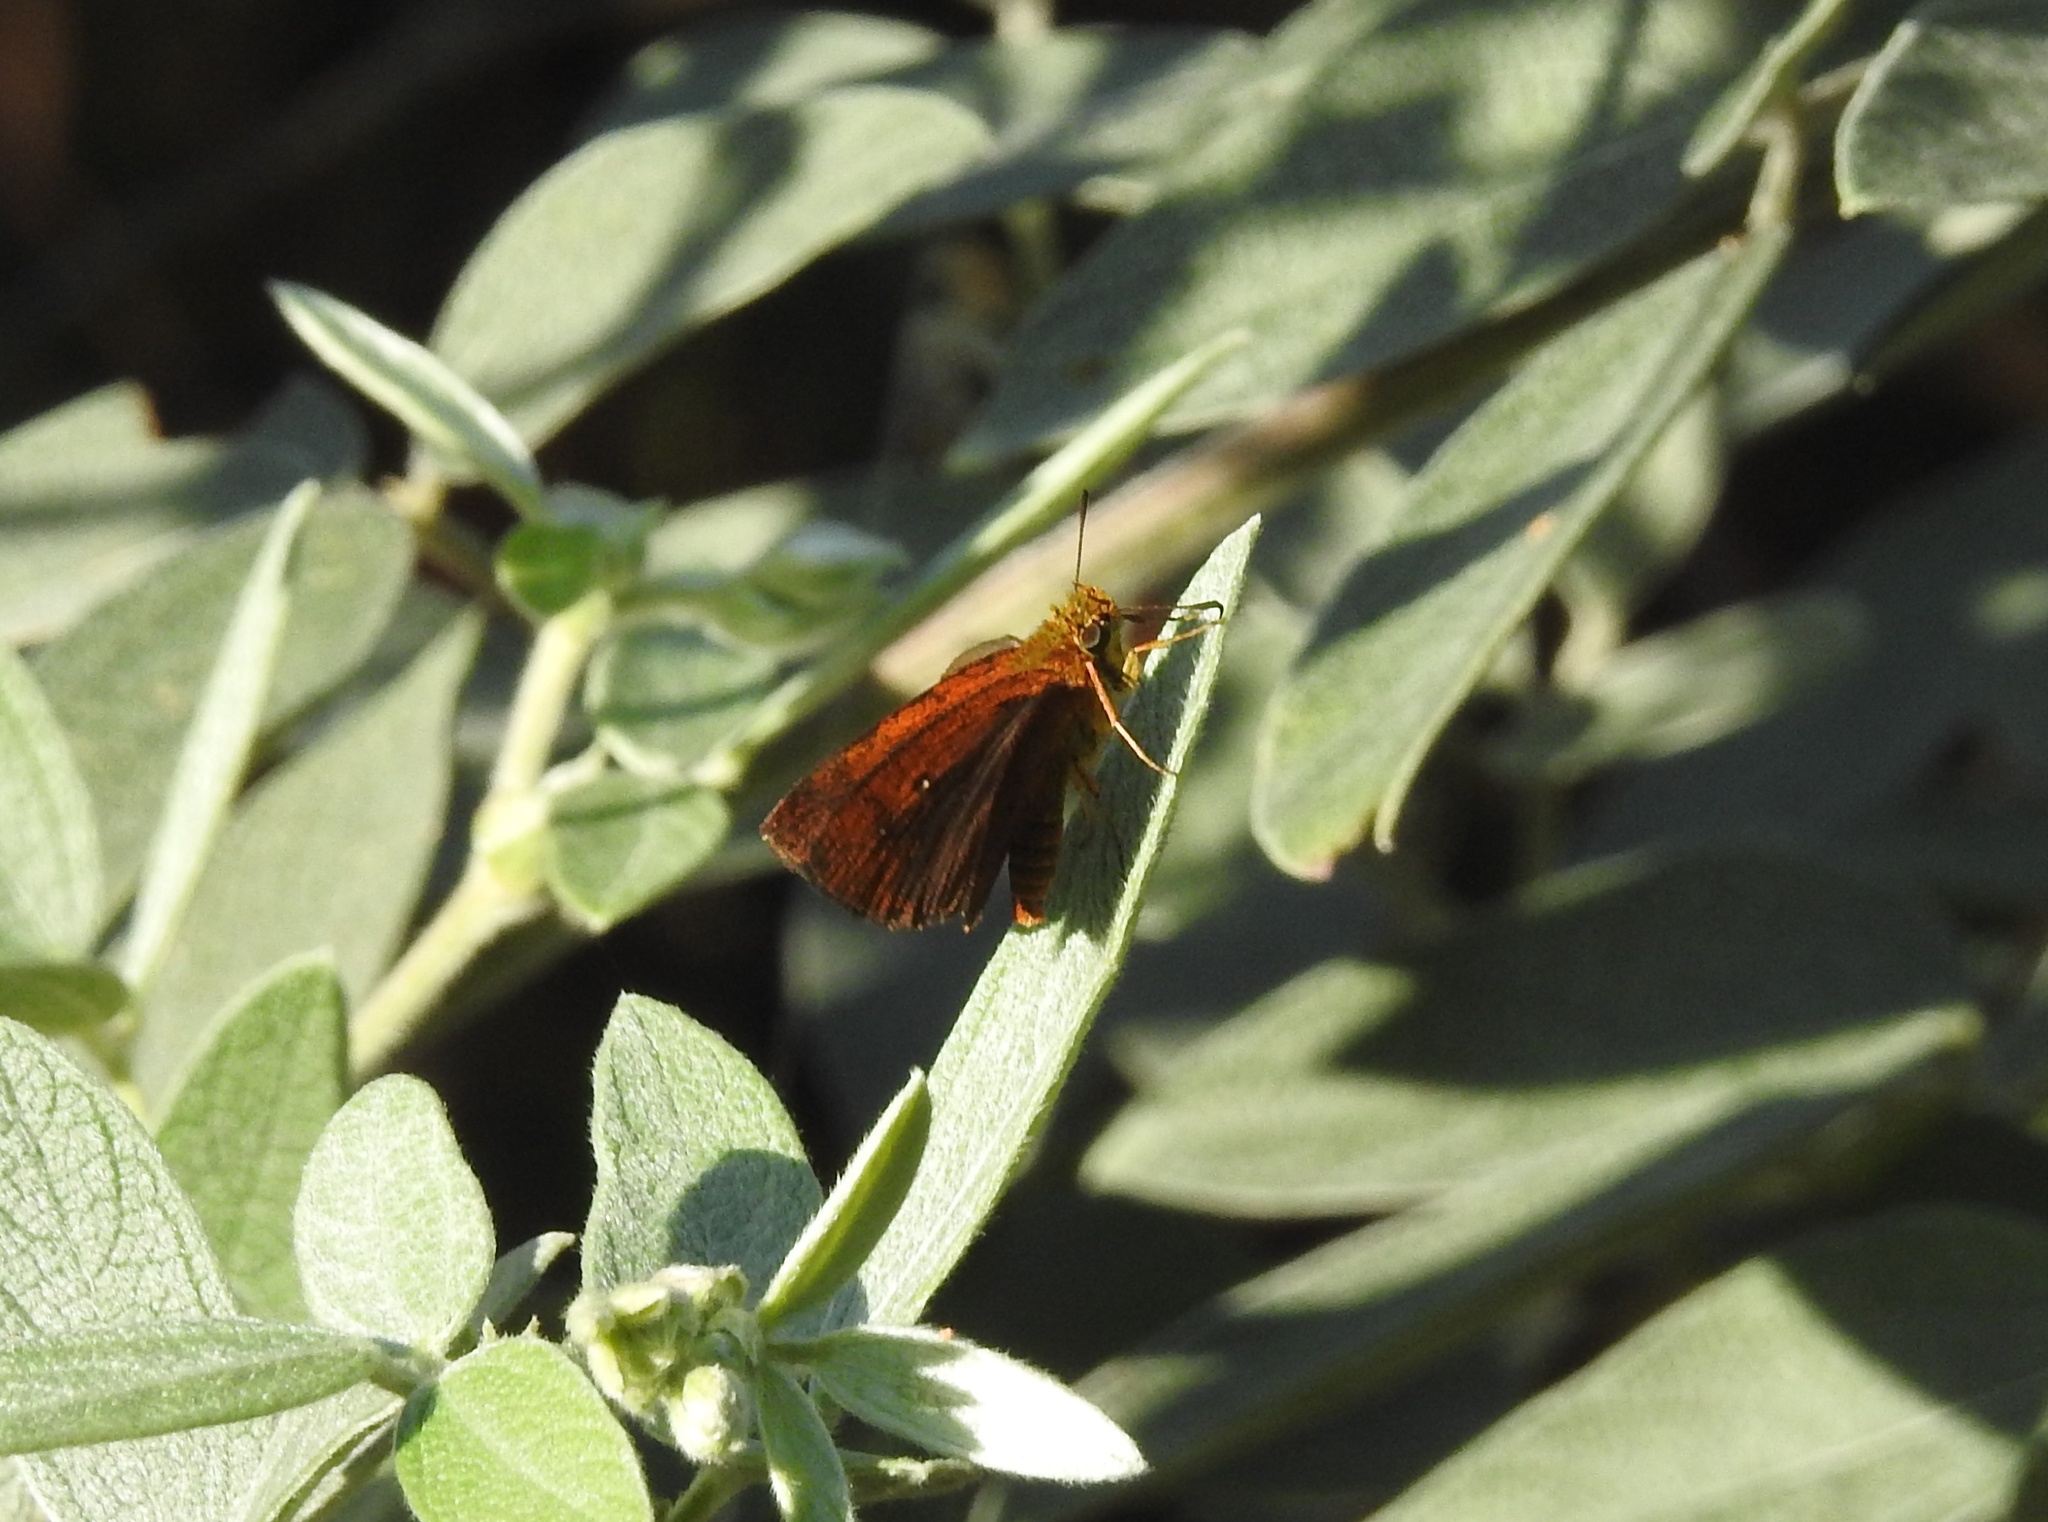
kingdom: Animalia
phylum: Arthropoda
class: Insecta
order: Lepidoptera
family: Hesperiidae
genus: Iambrix
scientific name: Iambrix salsala
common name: Chestnut bob
